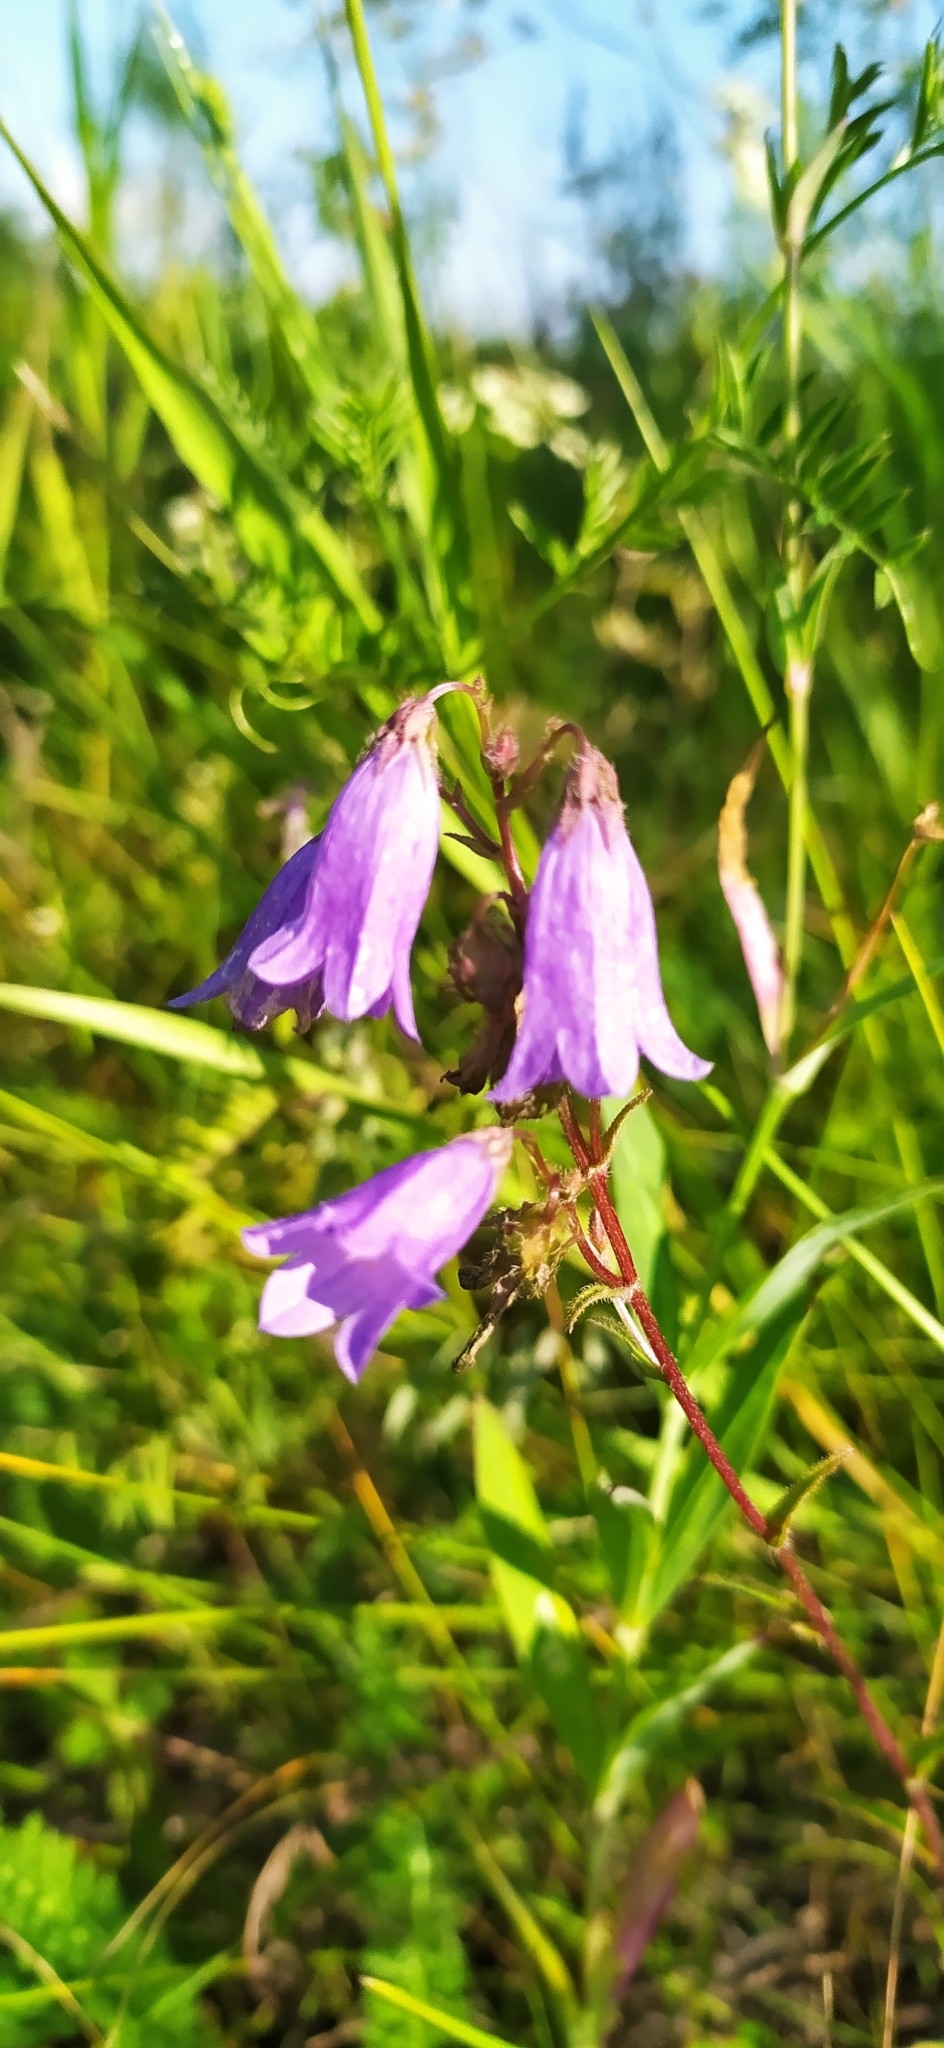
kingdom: Plantae
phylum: Tracheophyta
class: Magnoliopsida
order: Asterales
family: Campanulaceae
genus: Campanula
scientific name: Campanula sibirica
